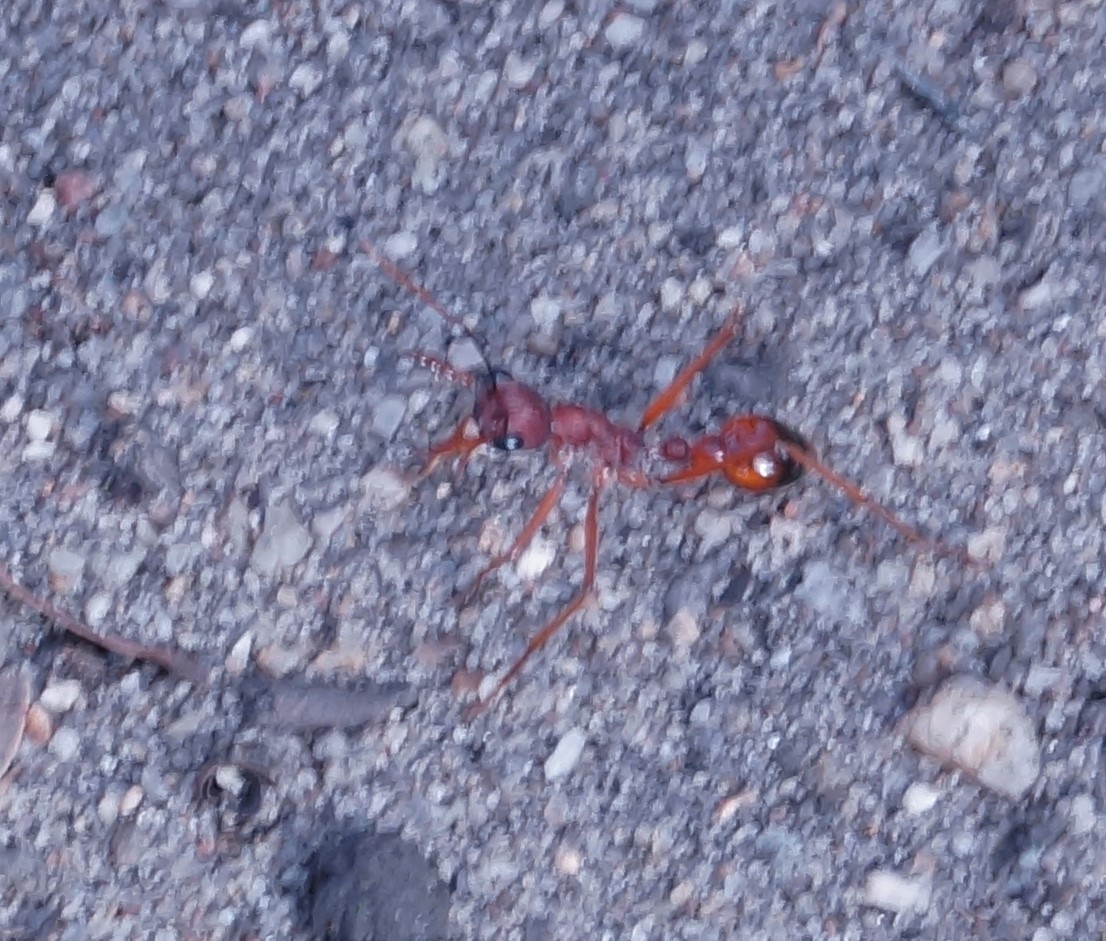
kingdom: Animalia
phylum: Arthropoda
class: Insecta
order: Hymenoptera
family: Formicidae
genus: Myrmecia
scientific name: Myrmecia nigriscapa
